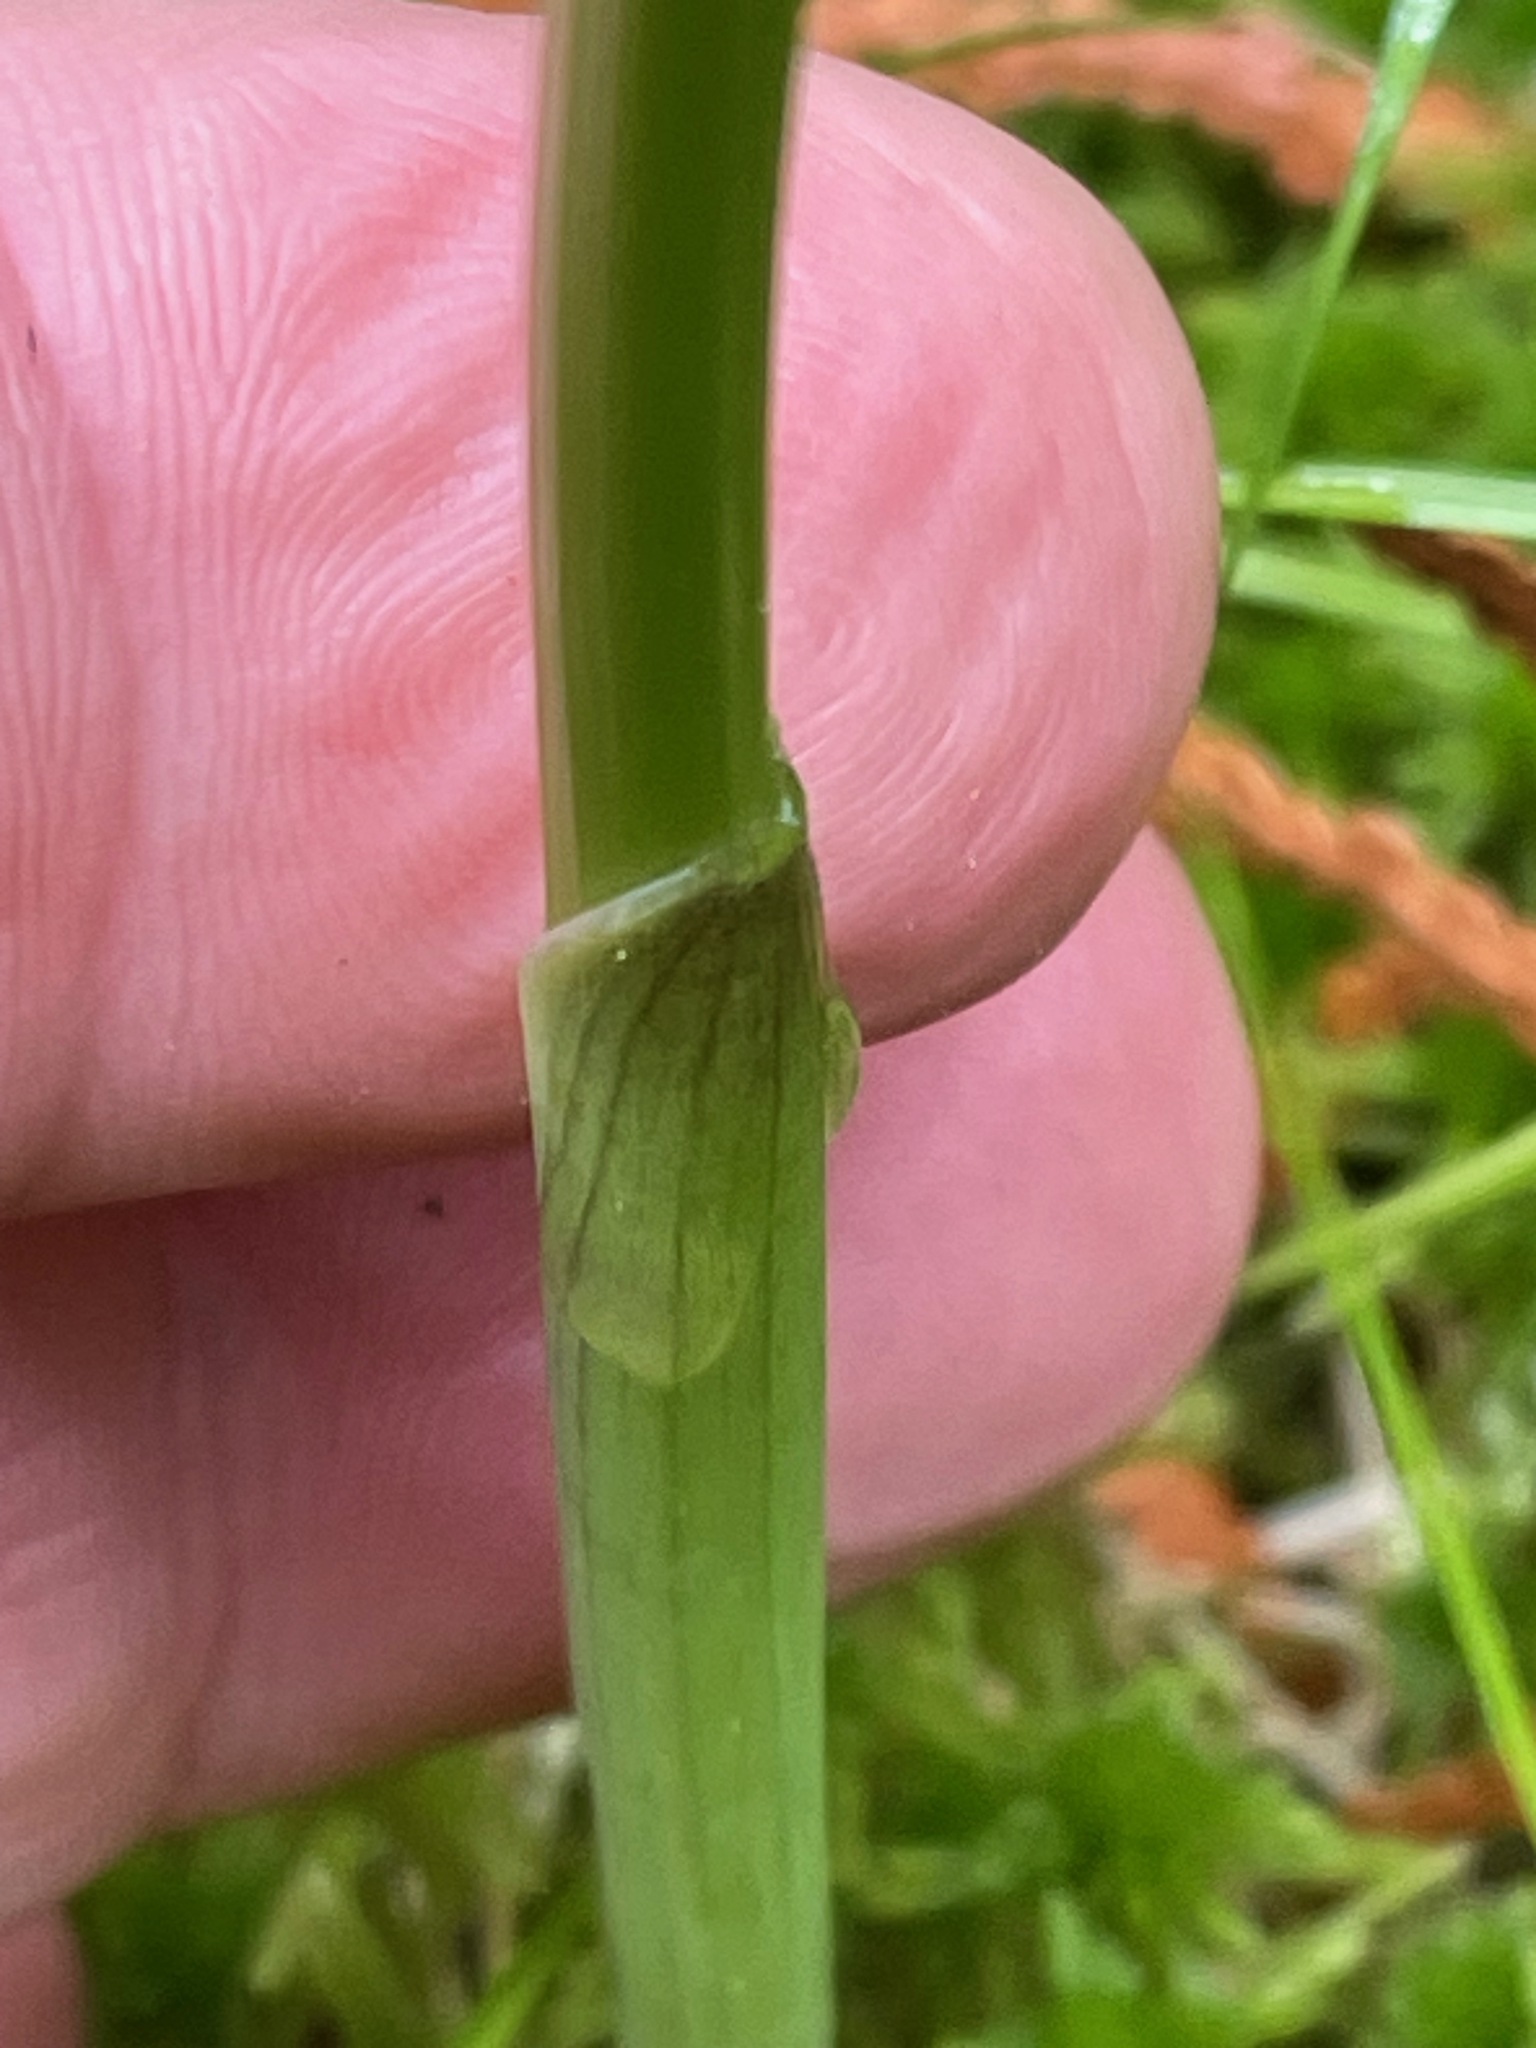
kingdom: Plantae
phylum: Tracheophyta
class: Liliopsida
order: Asparagales
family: Asparagaceae
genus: Maianthemum
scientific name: Maianthemum stellatum
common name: Little false solomon's seal
